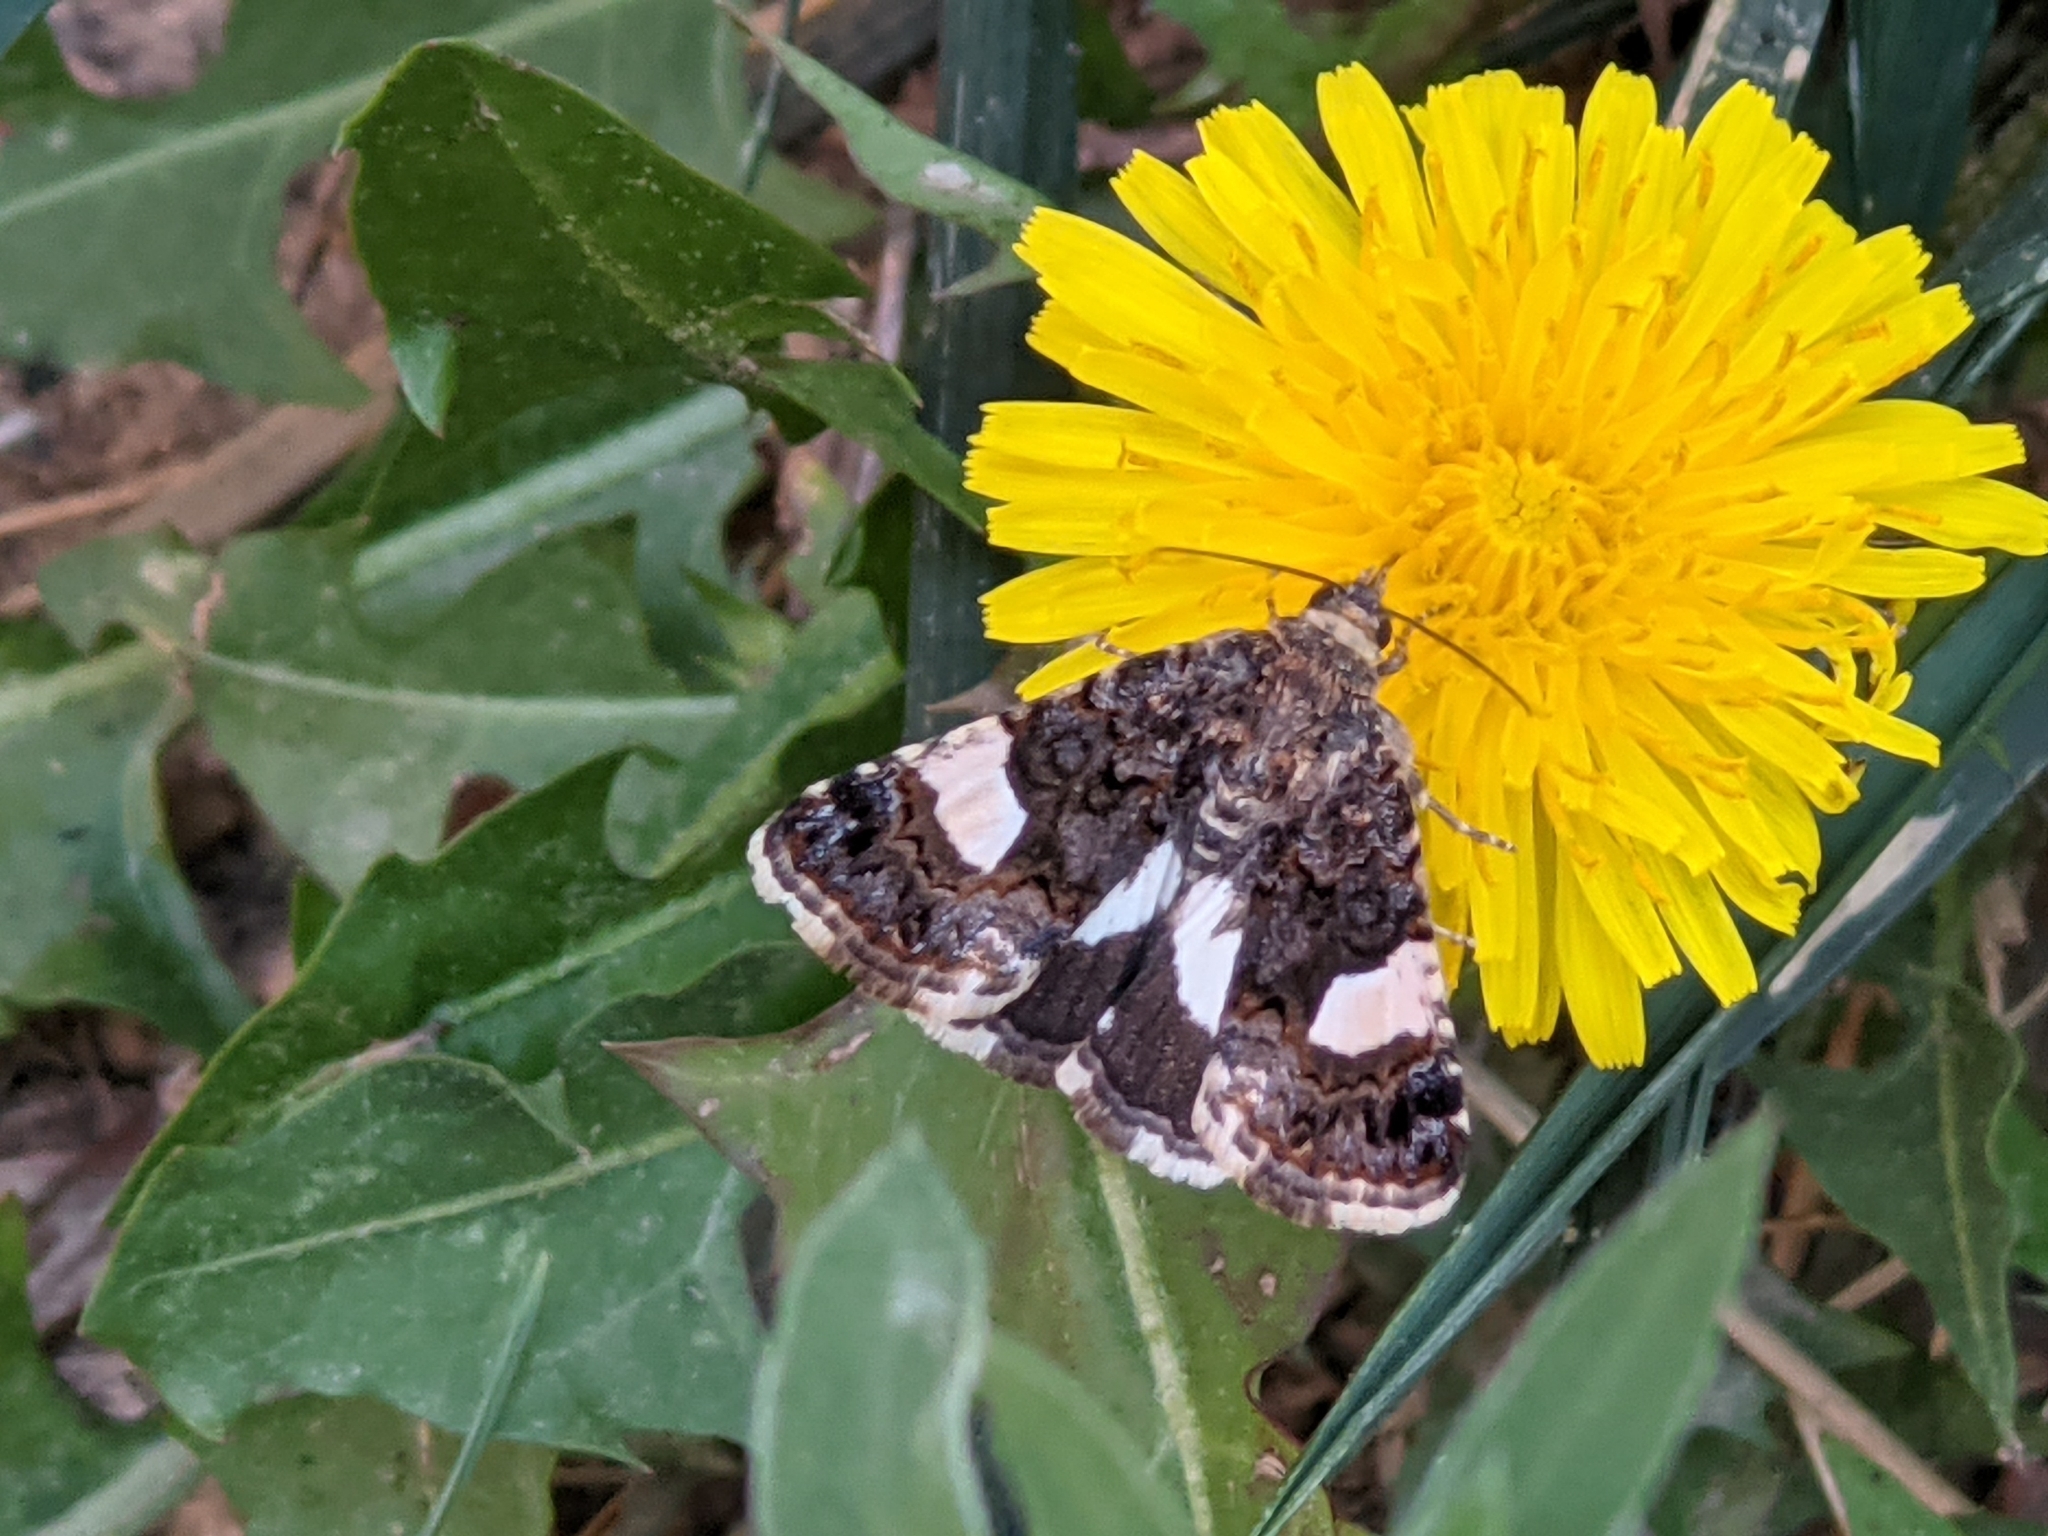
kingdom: Animalia
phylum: Arthropoda
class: Insecta
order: Lepidoptera
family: Erebidae
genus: Tyta
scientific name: Tyta luctuosa
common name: Four-spotted
